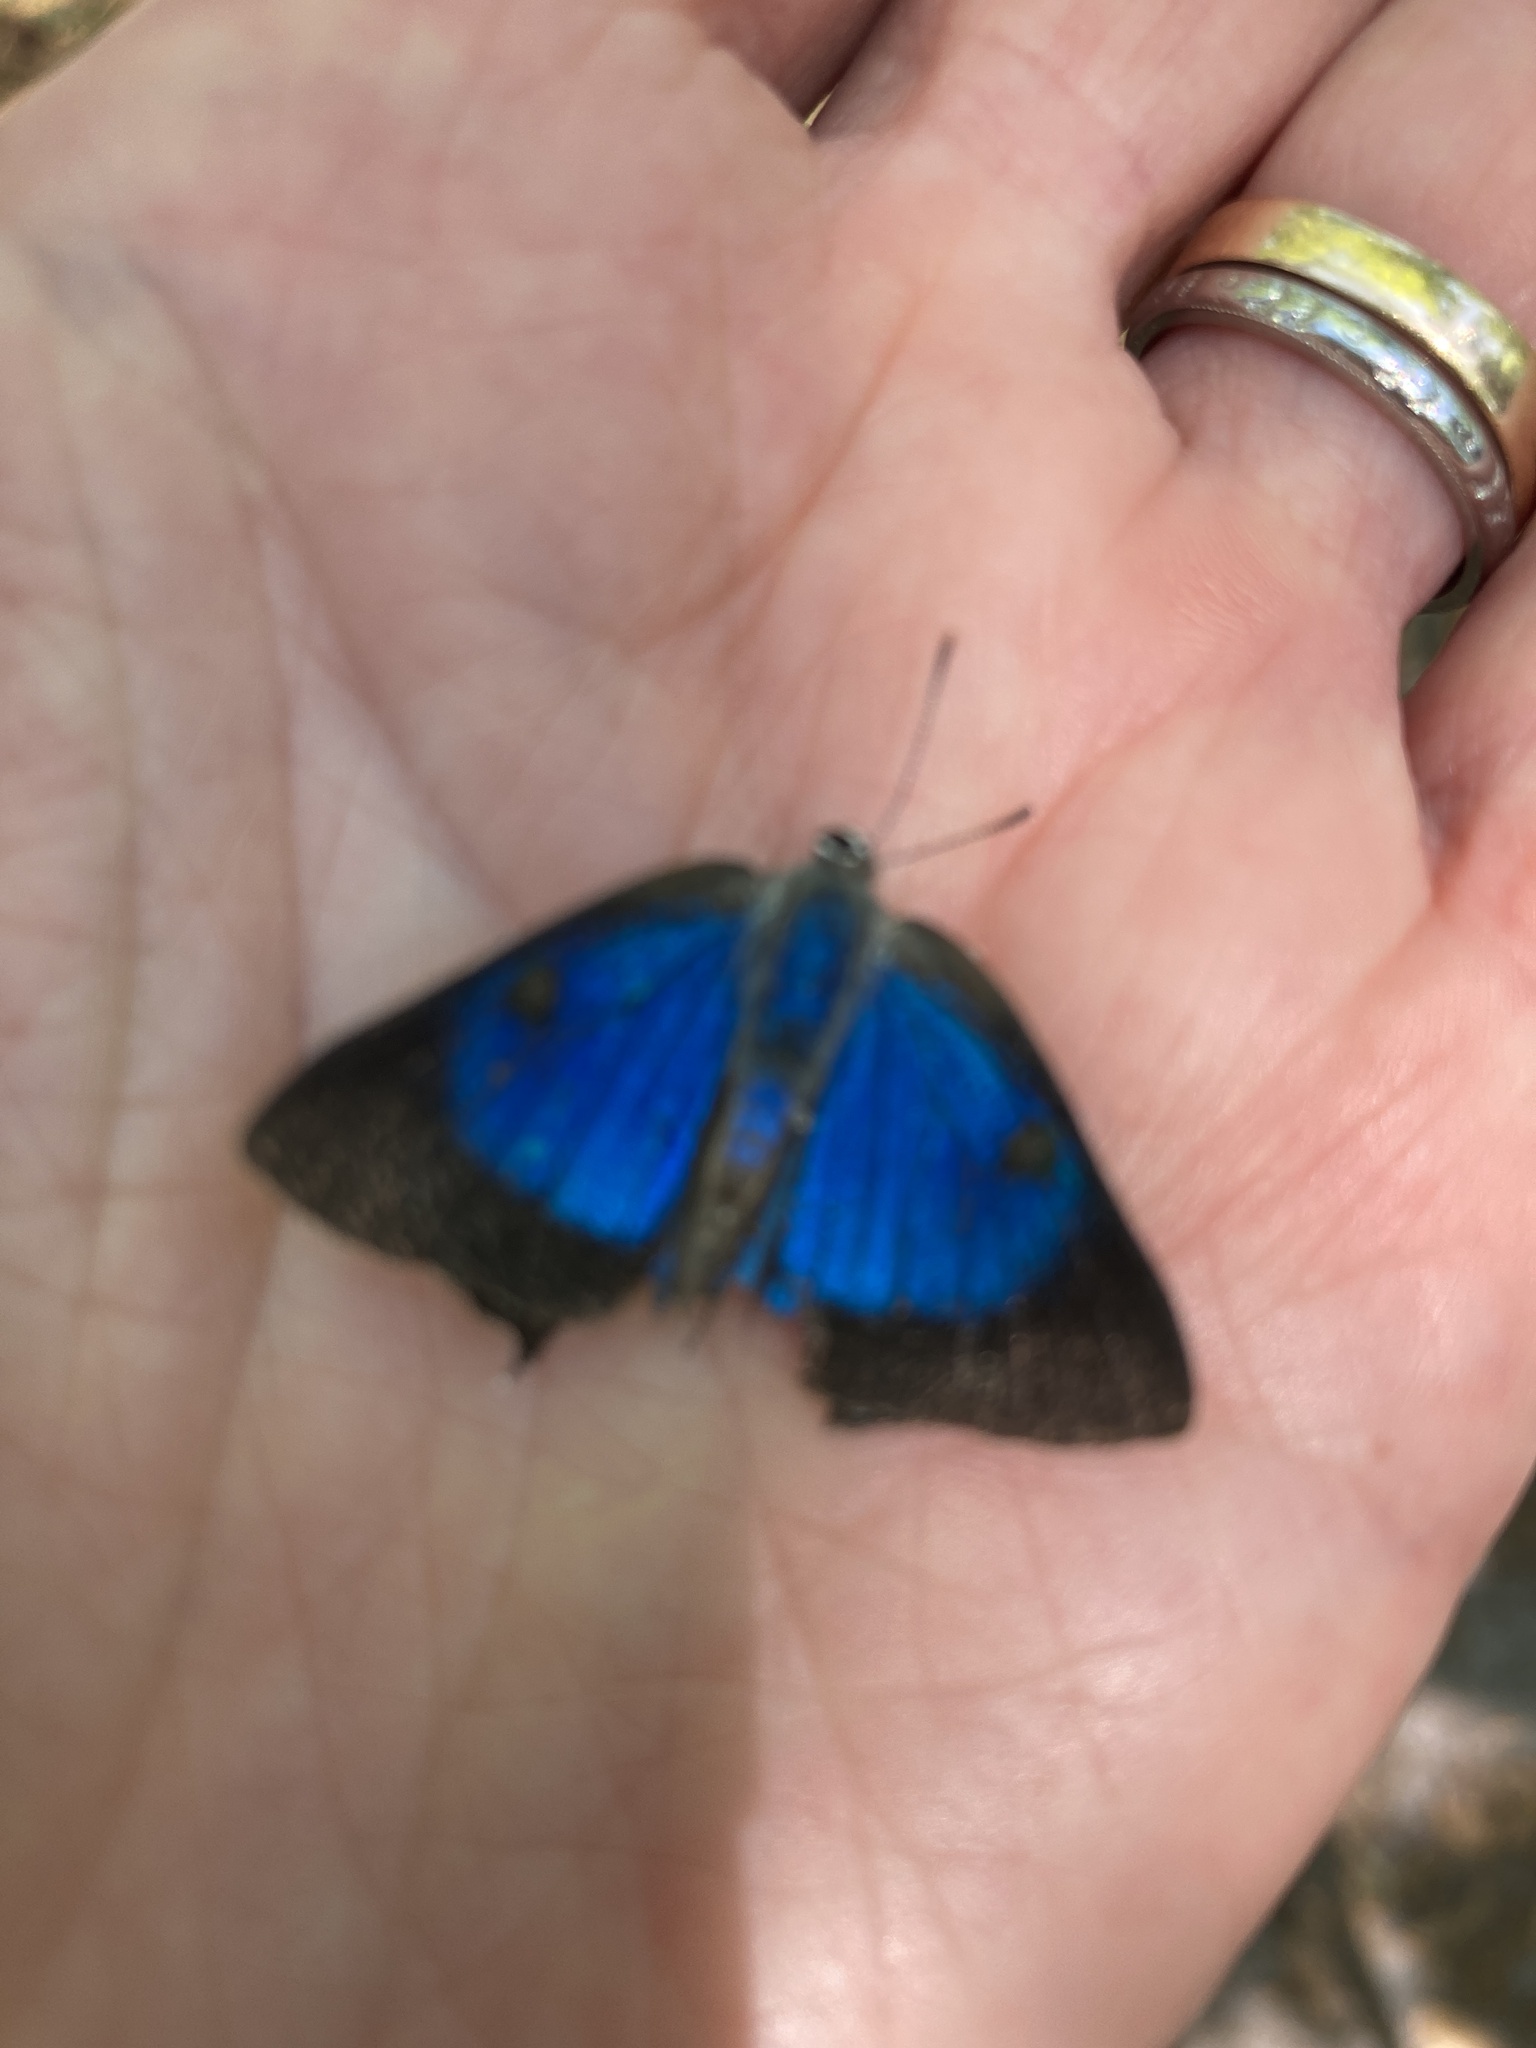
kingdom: Animalia
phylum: Arthropoda
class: Insecta
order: Lepidoptera
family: Lycaenidae
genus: Parrhasius
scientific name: Parrhasius m-album
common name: White m hairstreak
